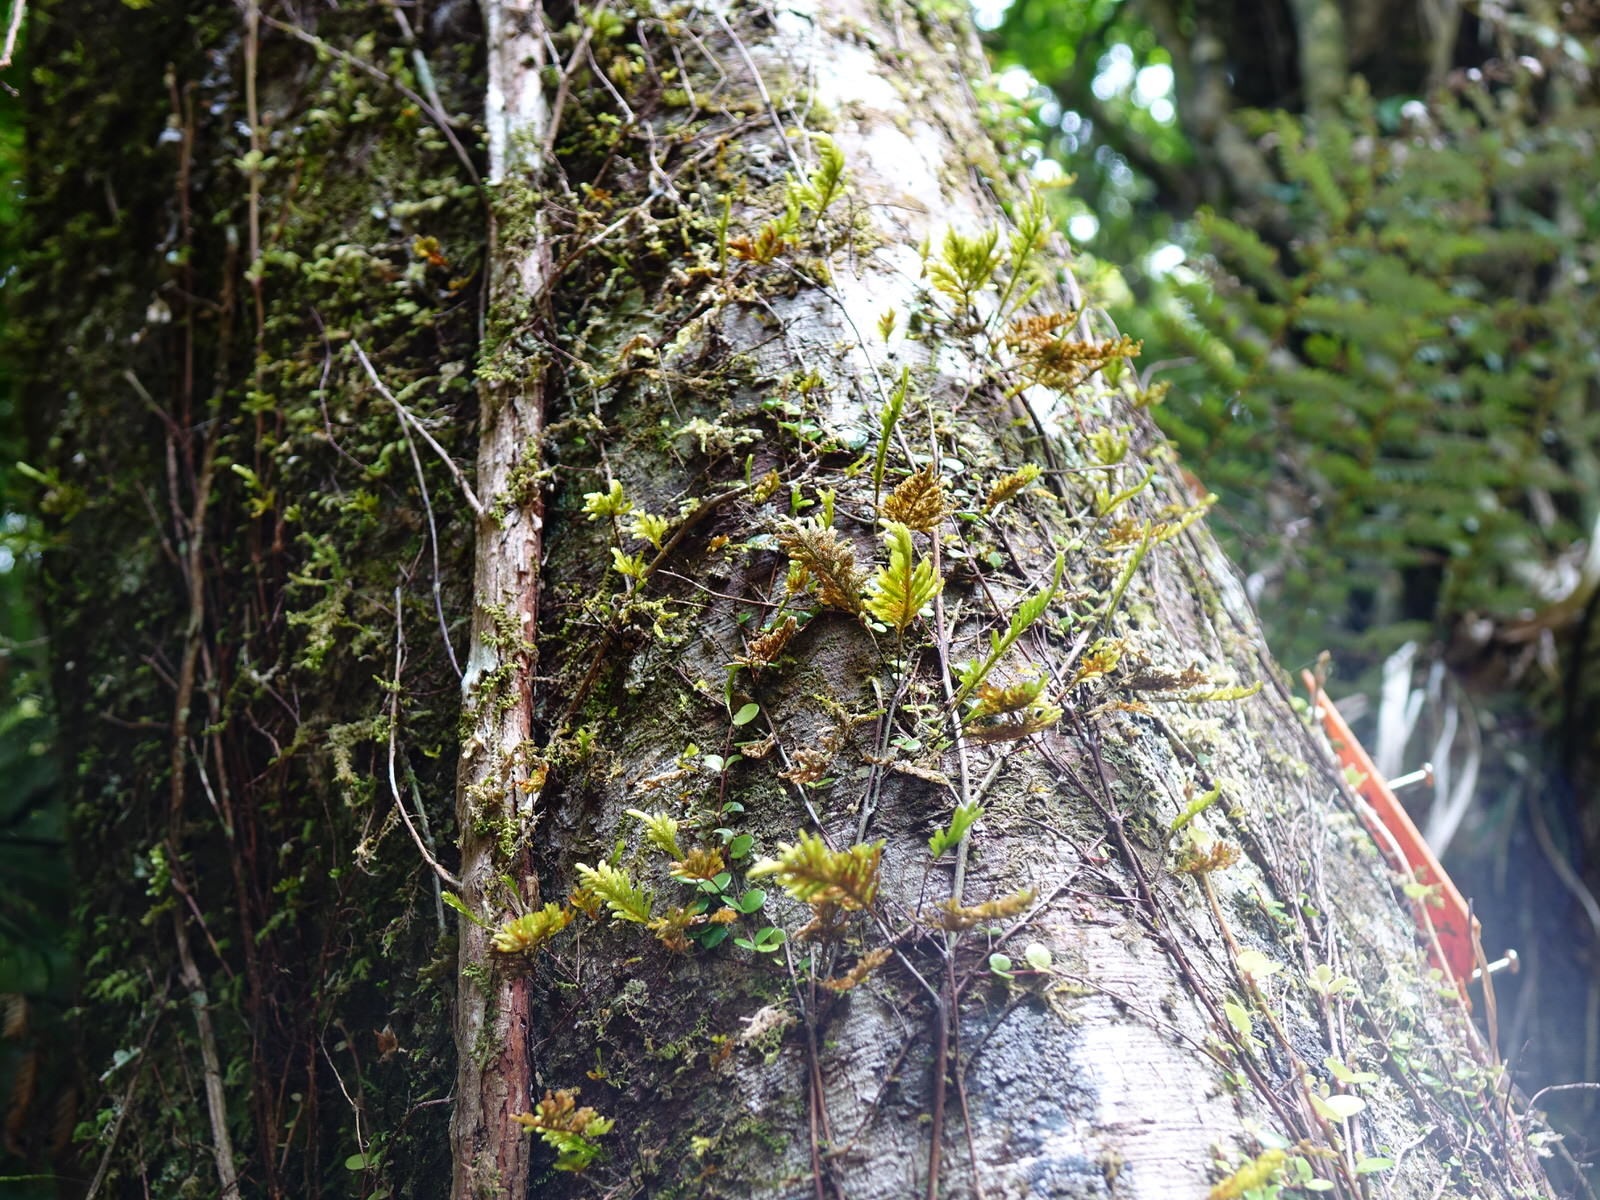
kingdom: Plantae
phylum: Bryophyta
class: Bryopsida
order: Hypopterygiales
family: Hypopterygiaceae
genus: Lopidium
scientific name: Lopidium concinnum
